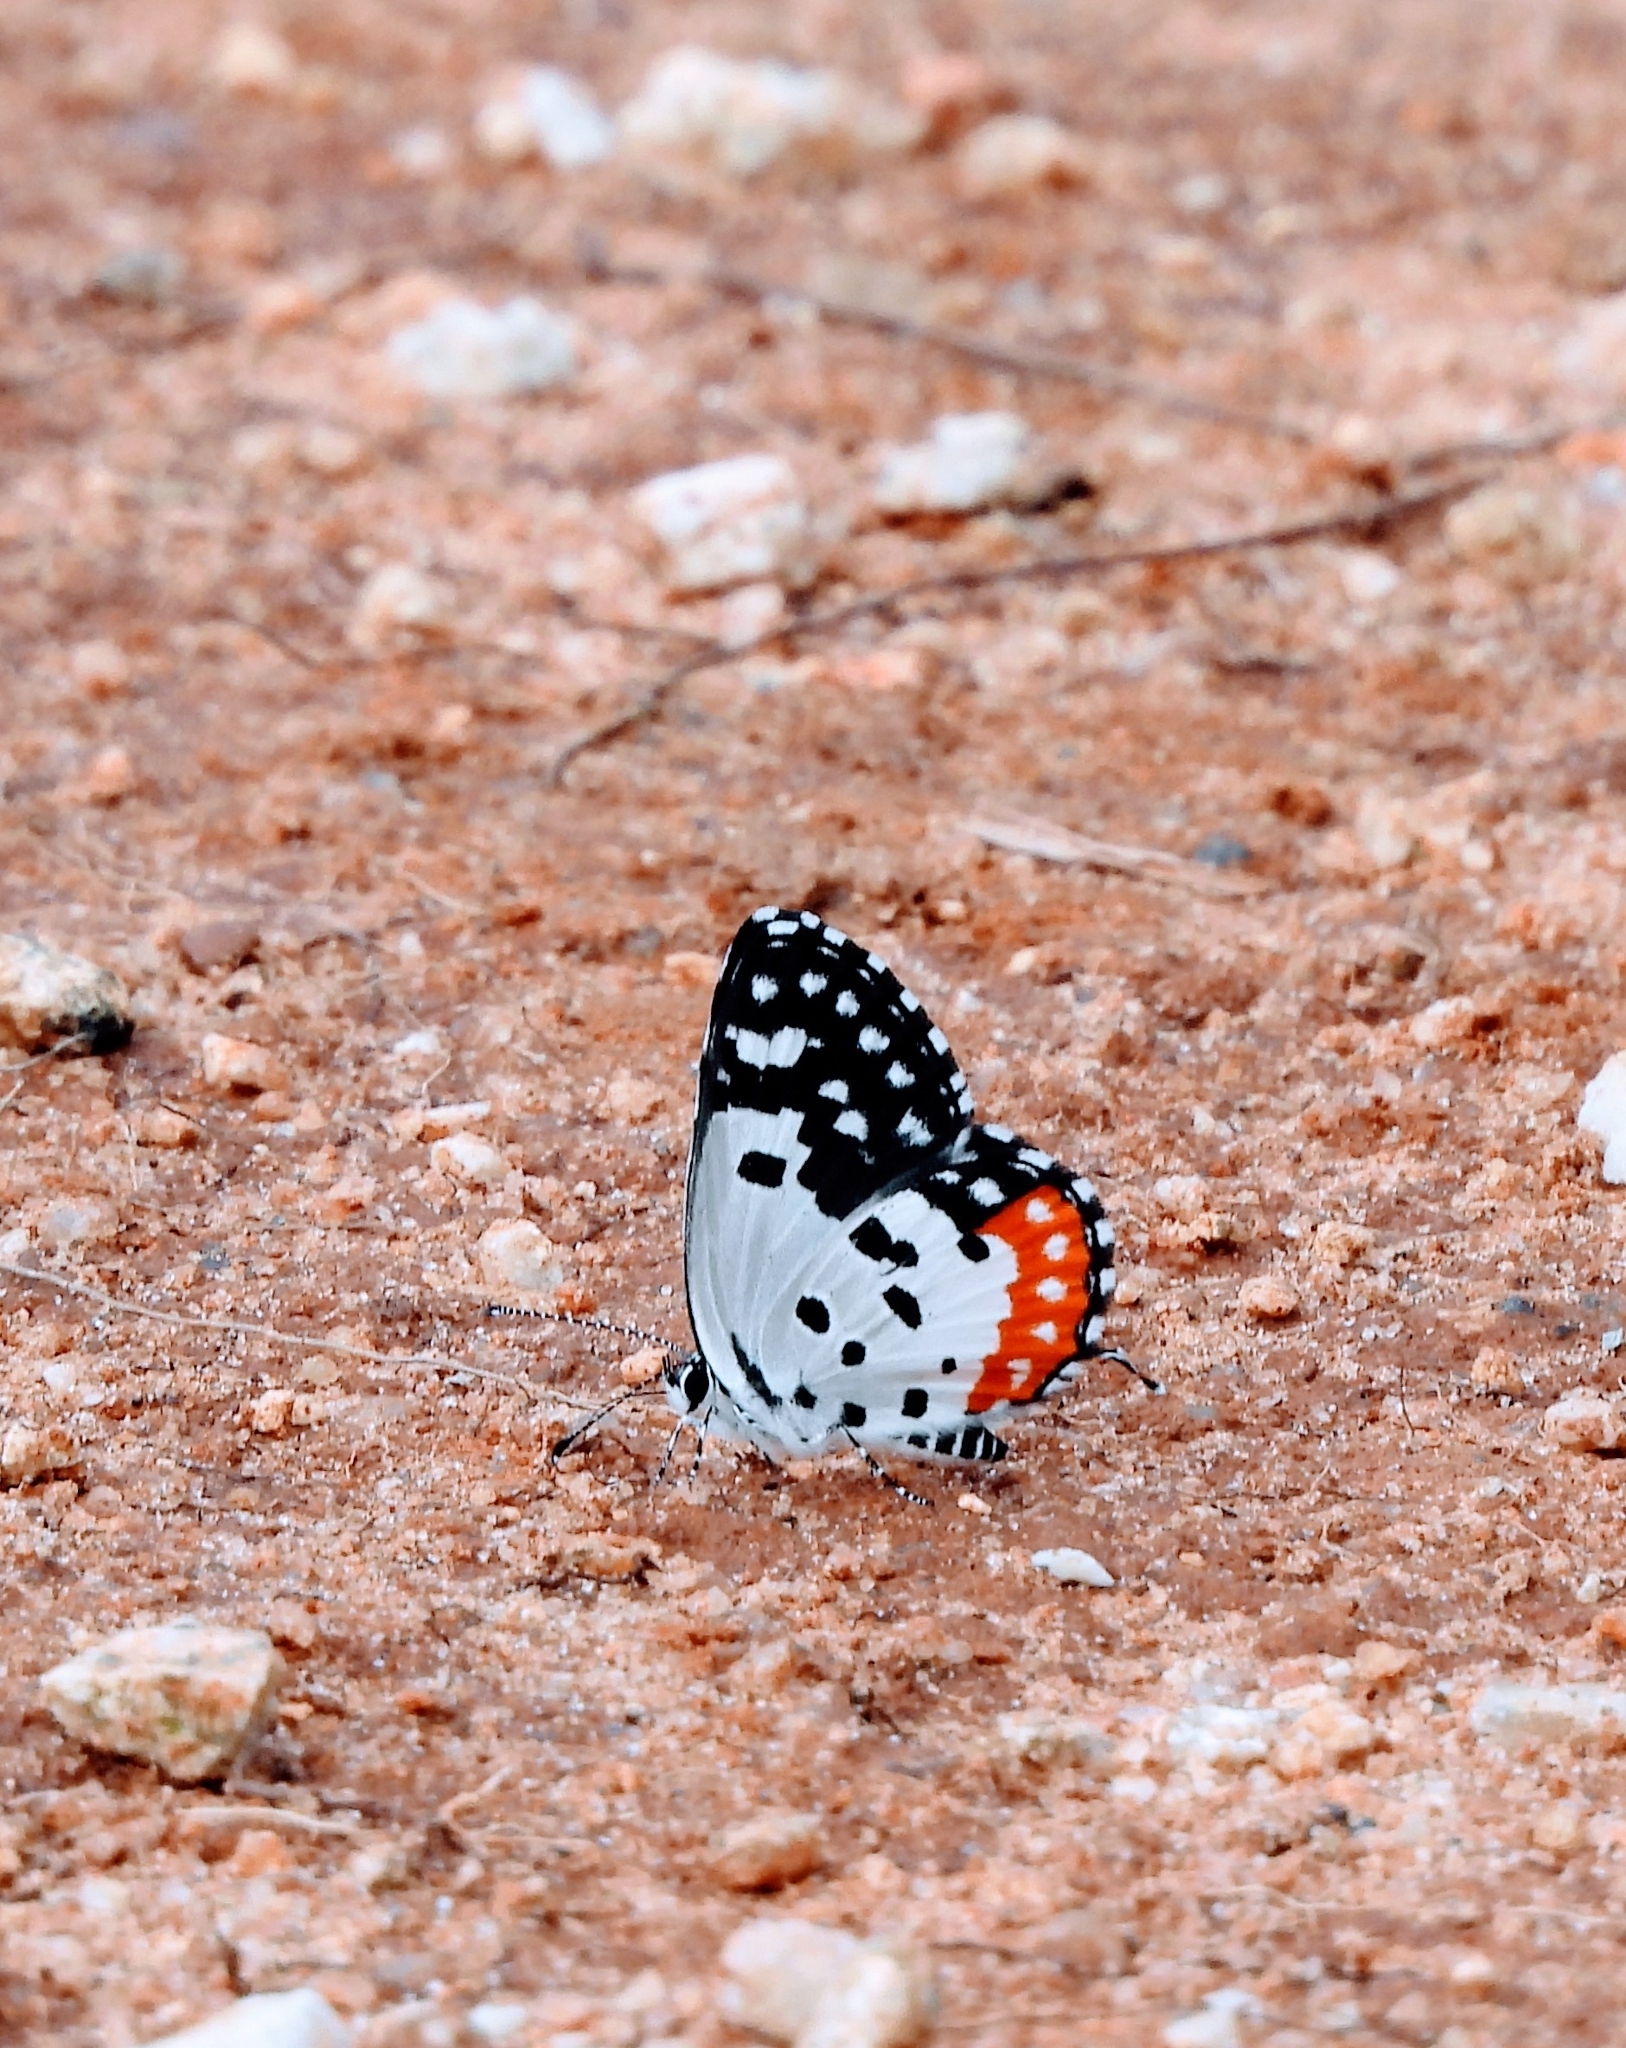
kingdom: Animalia
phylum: Arthropoda
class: Insecta
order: Lepidoptera
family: Lycaenidae
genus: Talicada
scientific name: Talicada nyseus
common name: Red pierrot
